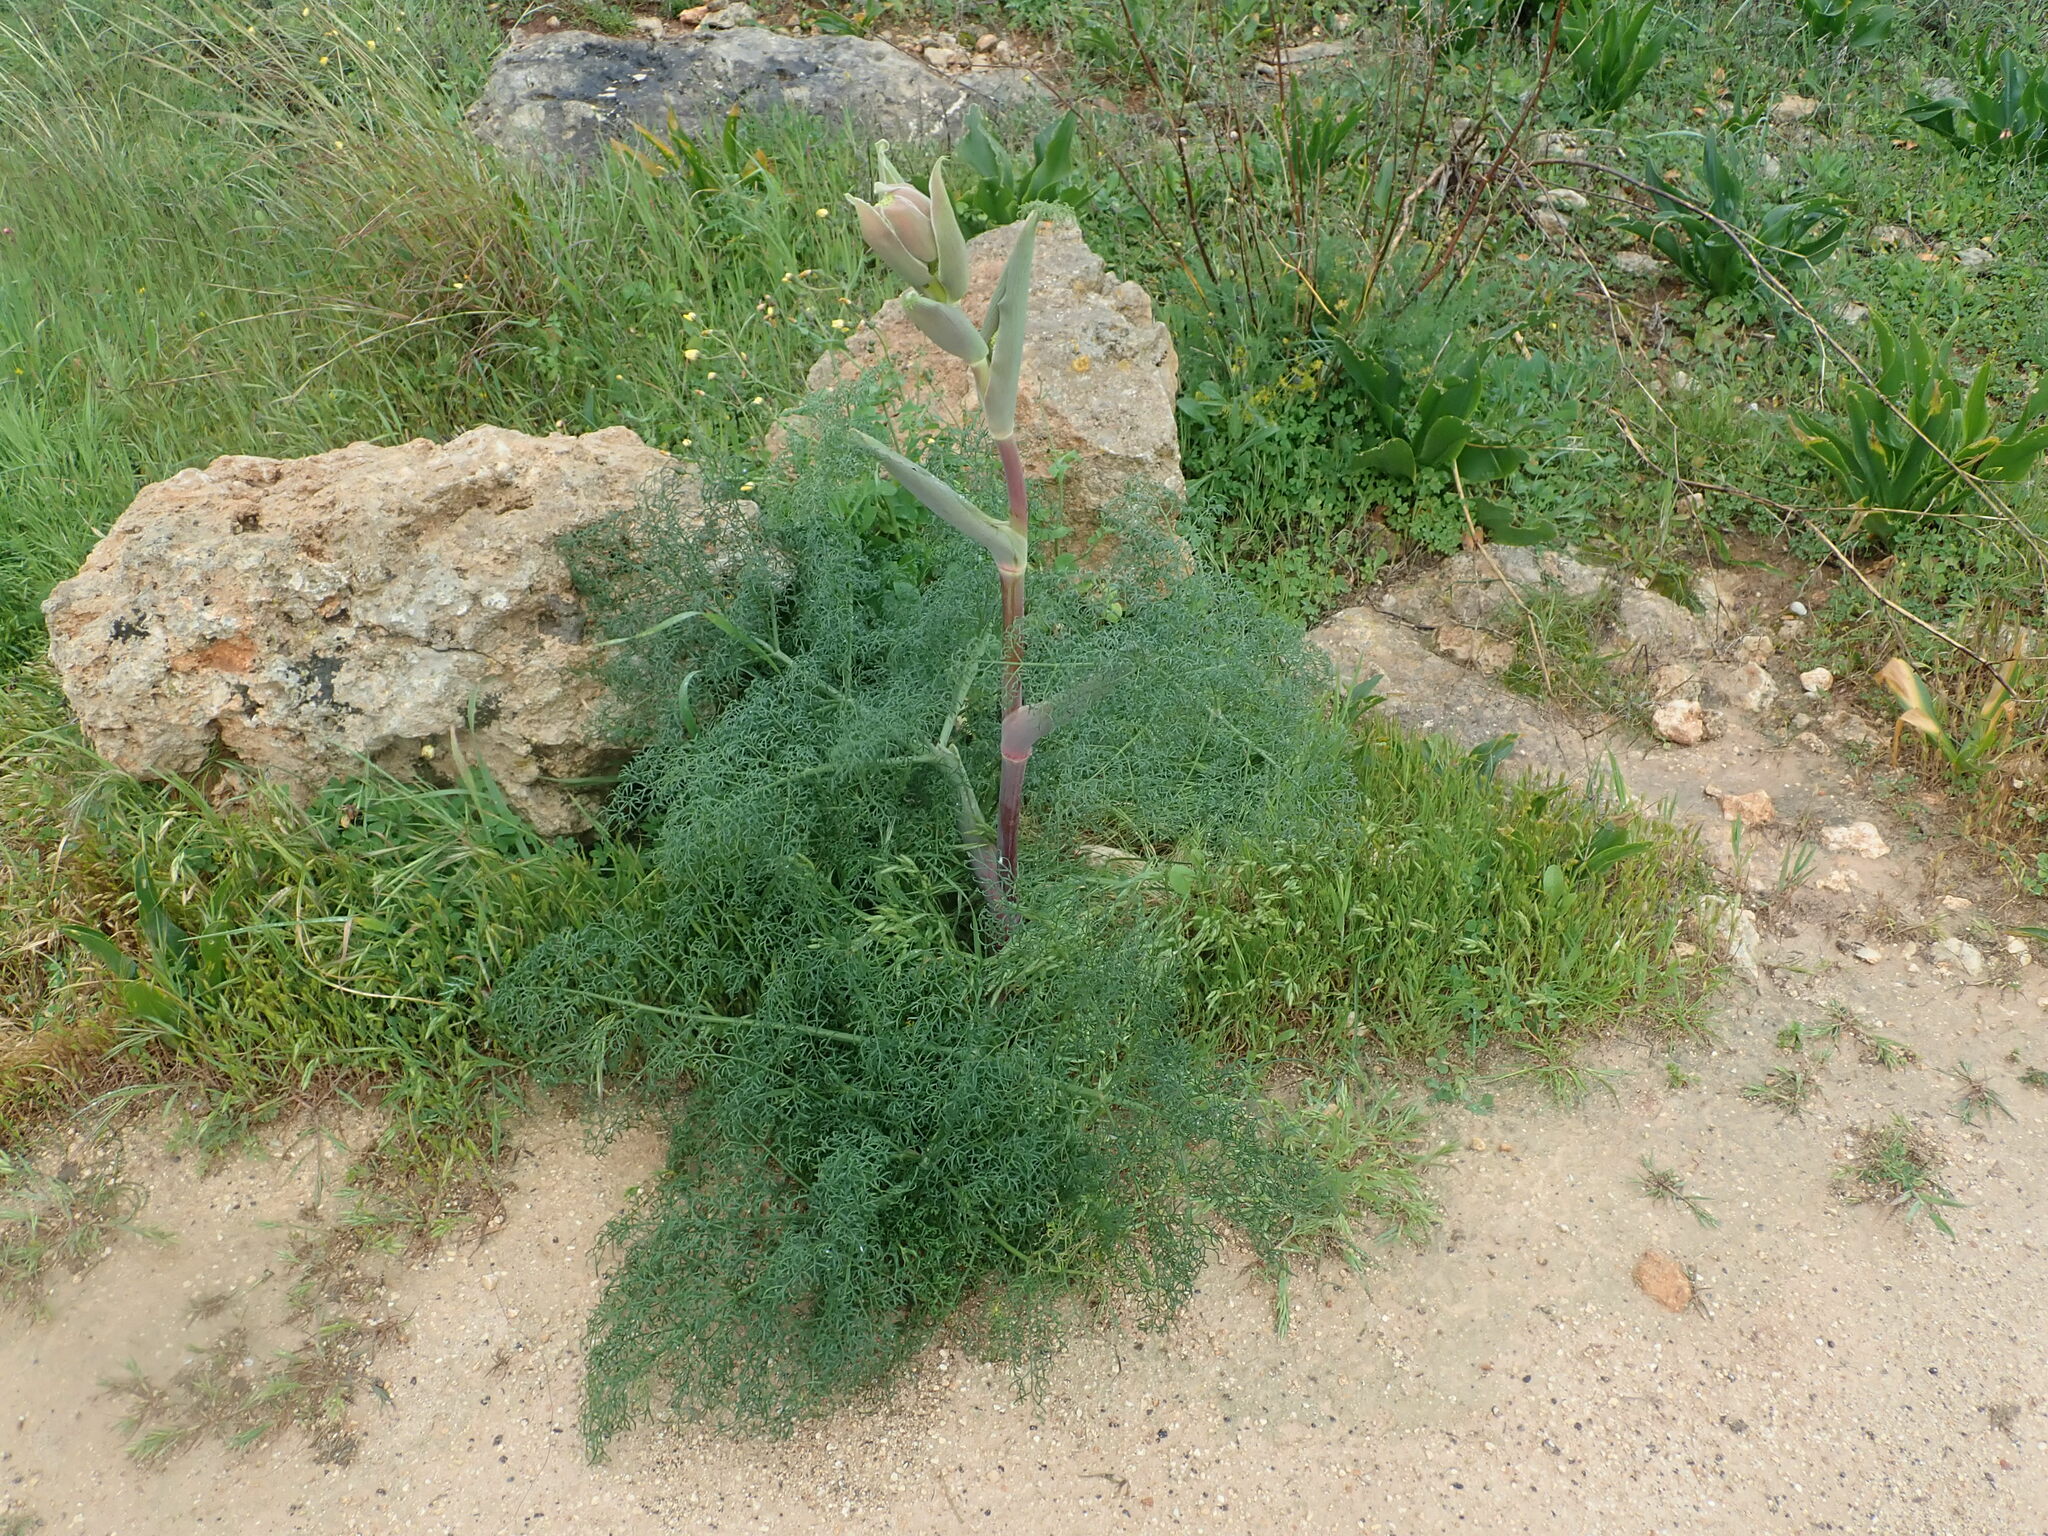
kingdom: Plantae
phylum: Tracheophyta
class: Magnoliopsida
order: Apiales
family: Apiaceae
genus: Ferula
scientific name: Ferula melitensis
